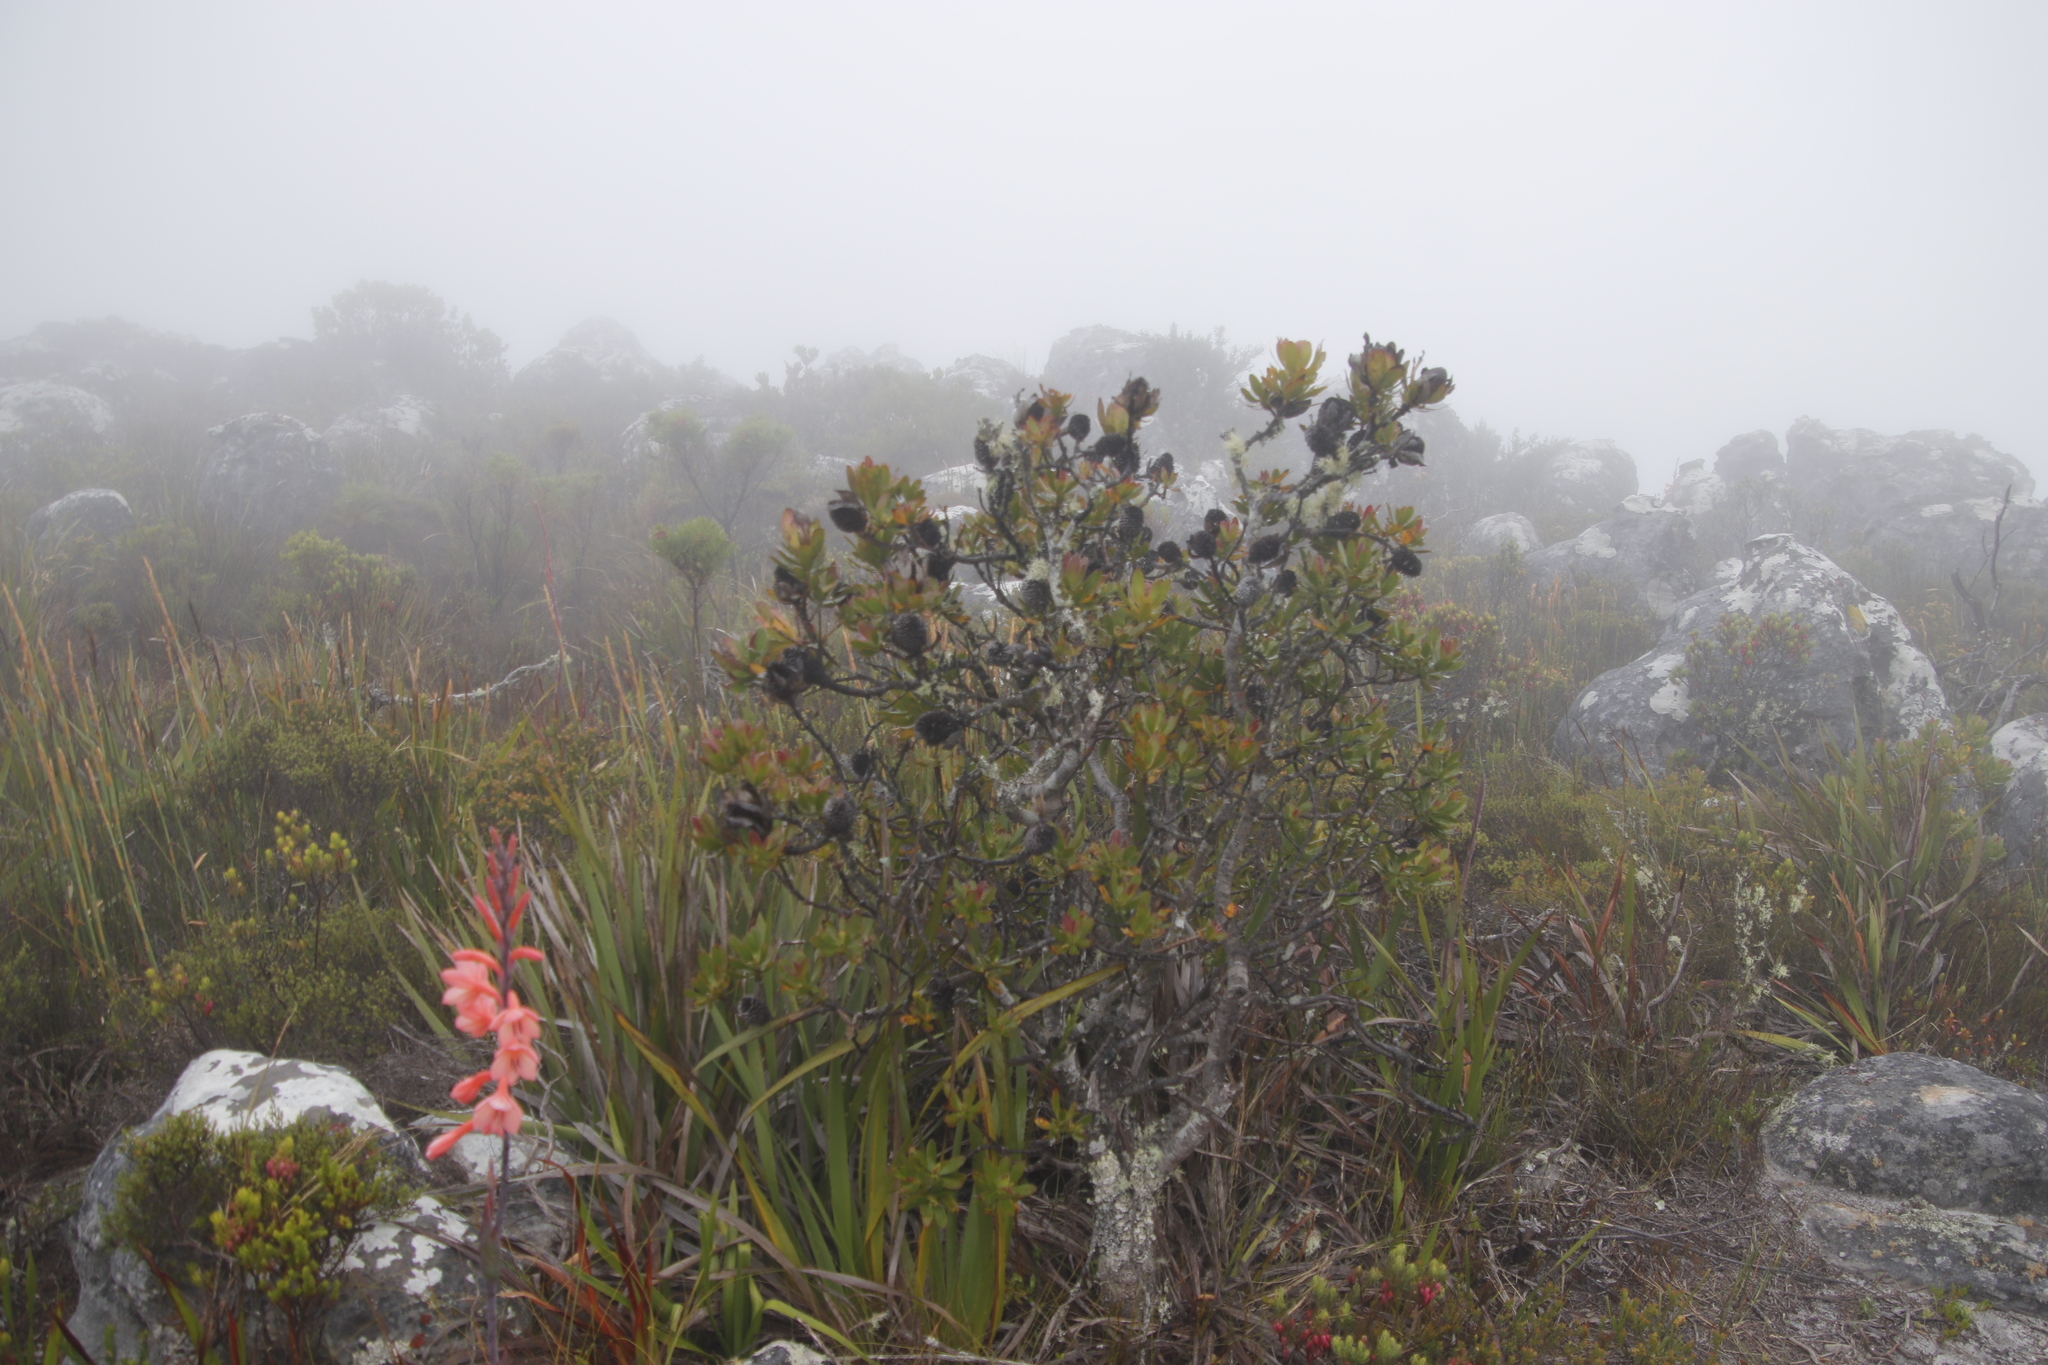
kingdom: Plantae
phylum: Tracheophyta
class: Magnoliopsida
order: Proteales
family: Proteaceae
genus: Leucadendron
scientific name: Leucadendron strobilinum
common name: Mountain rose
